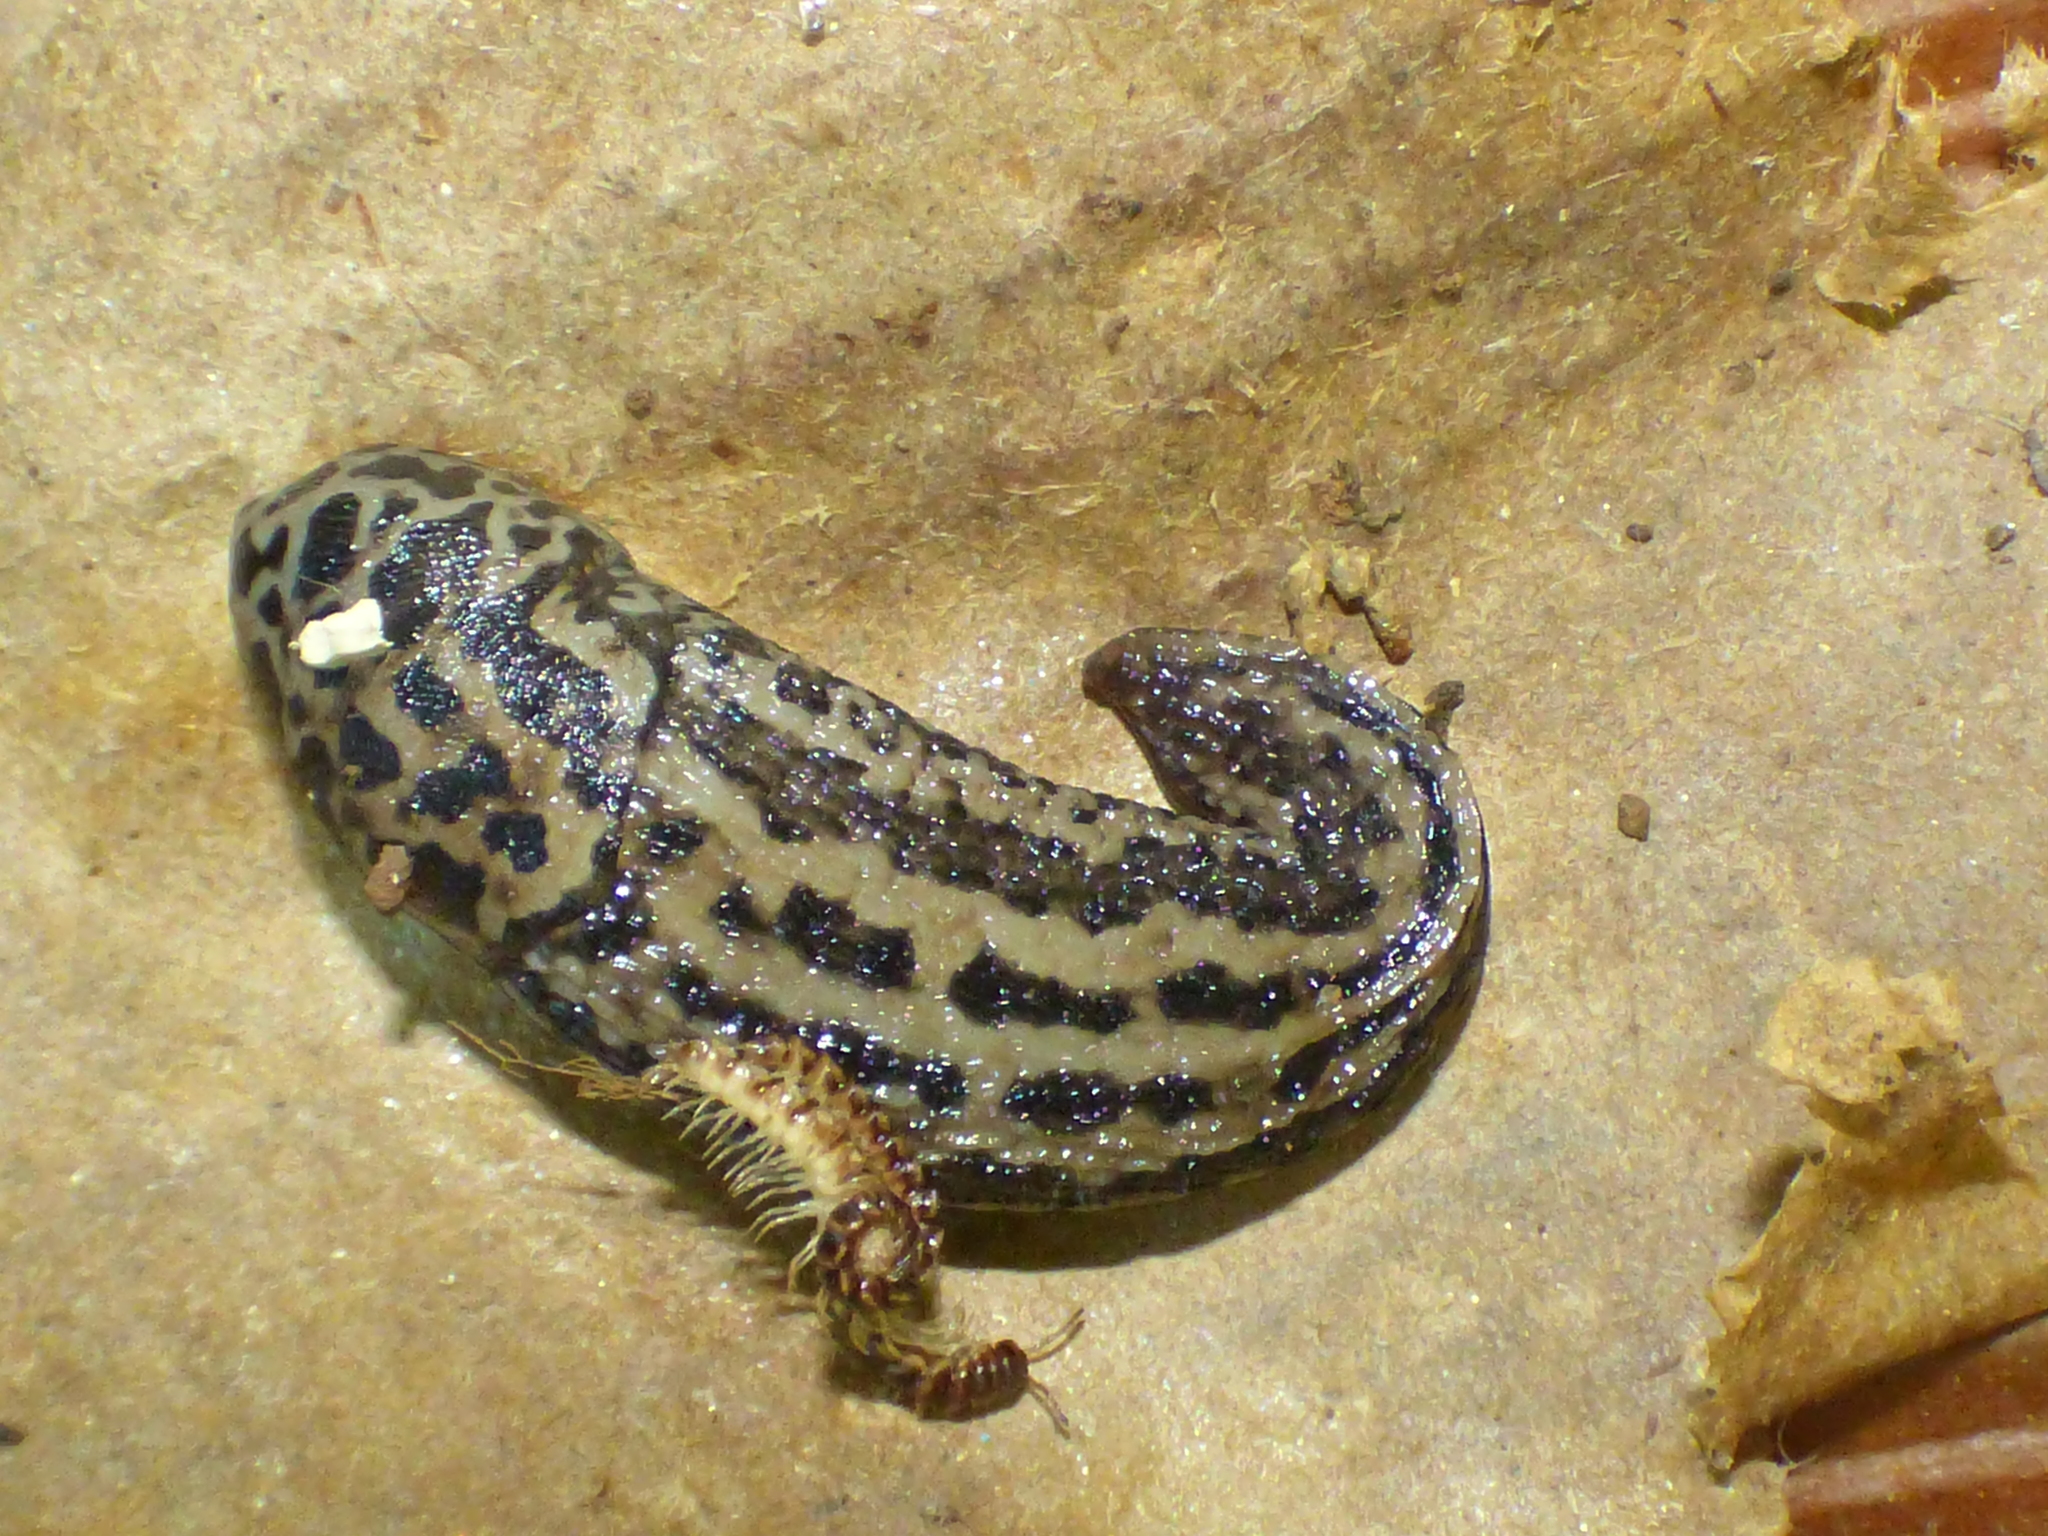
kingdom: Animalia
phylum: Mollusca
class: Gastropoda
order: Stylommatophora
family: Limacidae
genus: Limax
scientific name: Limax maximus
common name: Great grey slug
